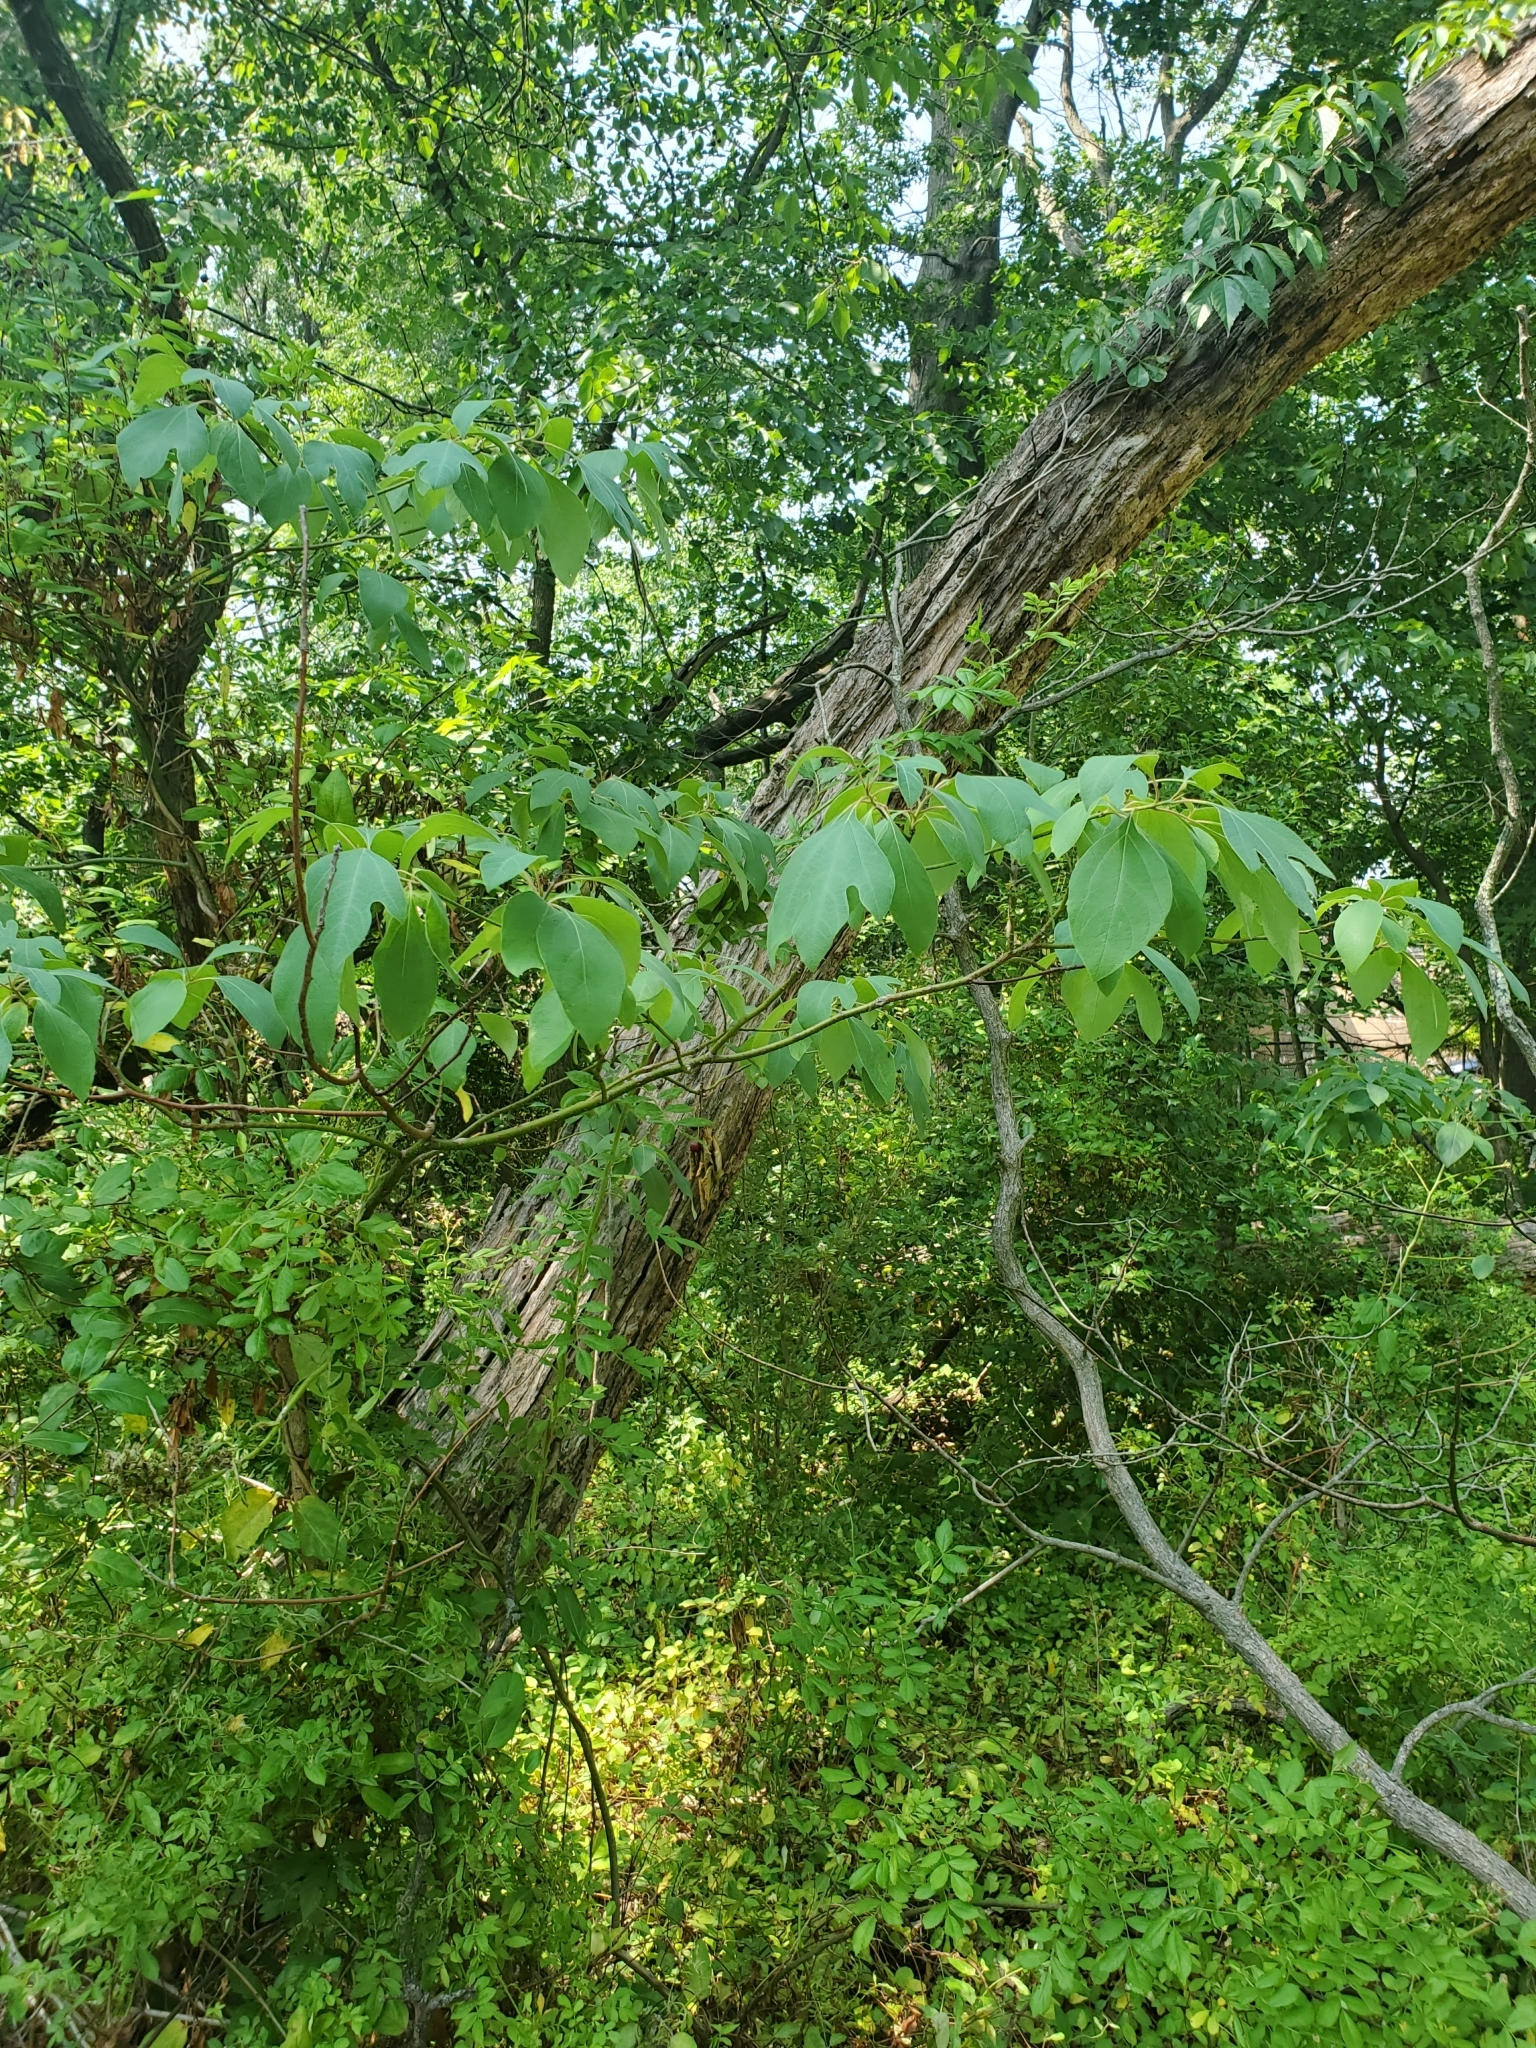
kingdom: Plantae
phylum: Tracheophyta
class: Magnoliopsida
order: Laurales
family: Lauraceae
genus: Sassafras
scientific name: Sassafras albidum
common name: Sassafras
